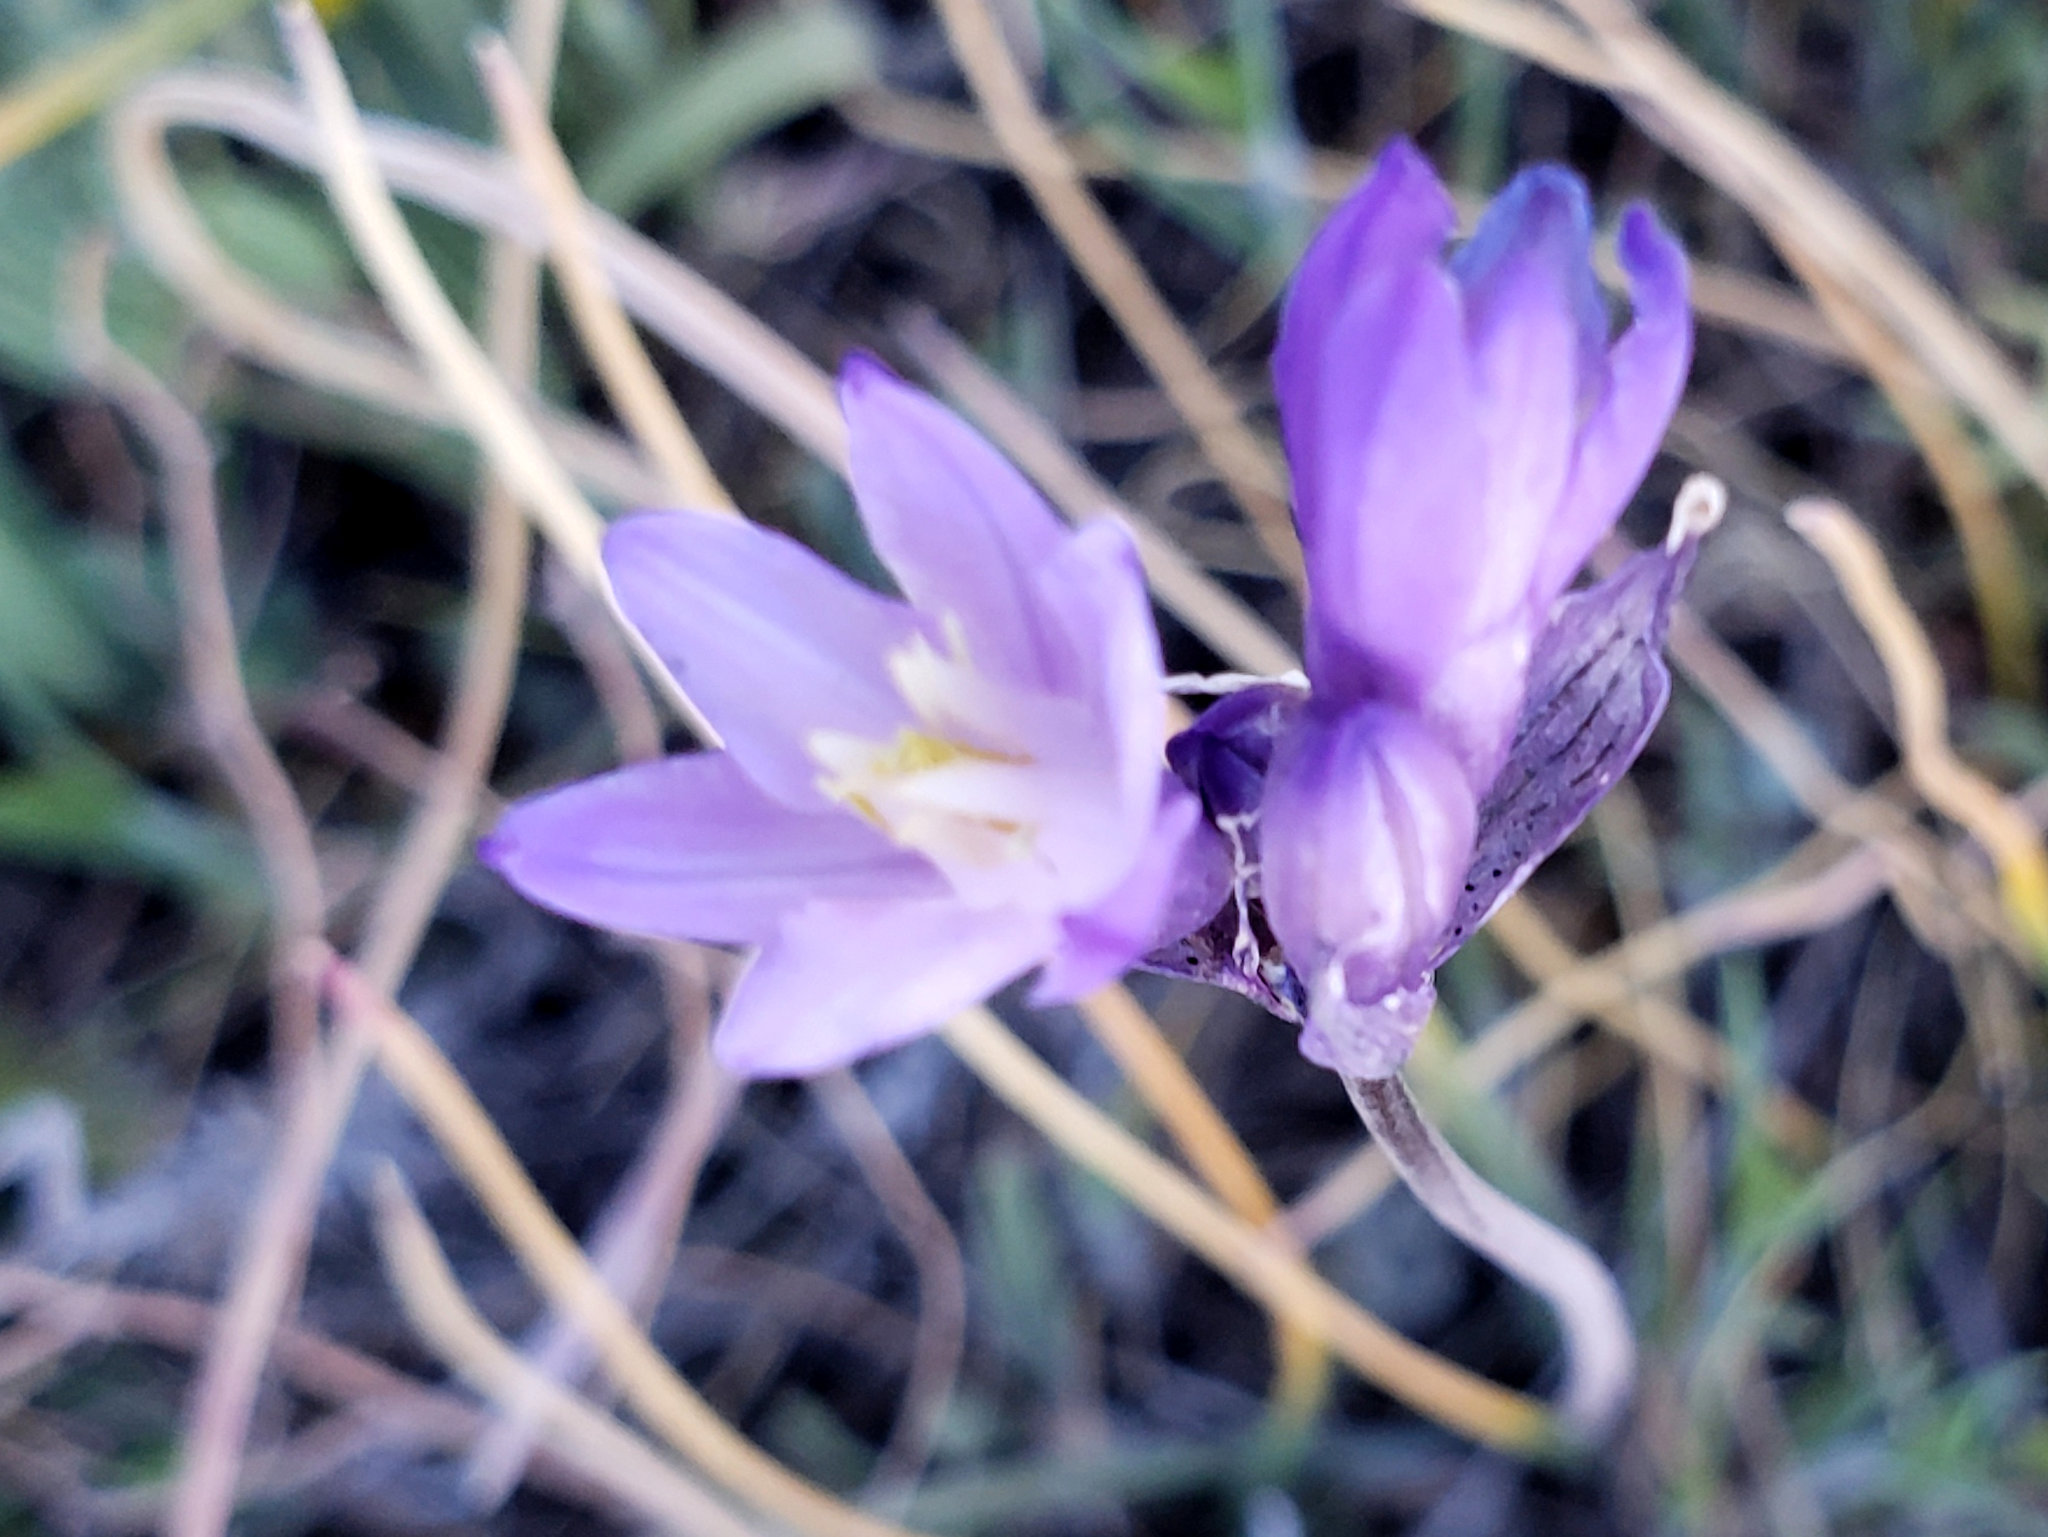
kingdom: Plantae
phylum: Tracheophyta
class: Liliopsida
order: Asparagales
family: Asparagaceae
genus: Dipterostemon
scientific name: Dipterostemon capitatus
